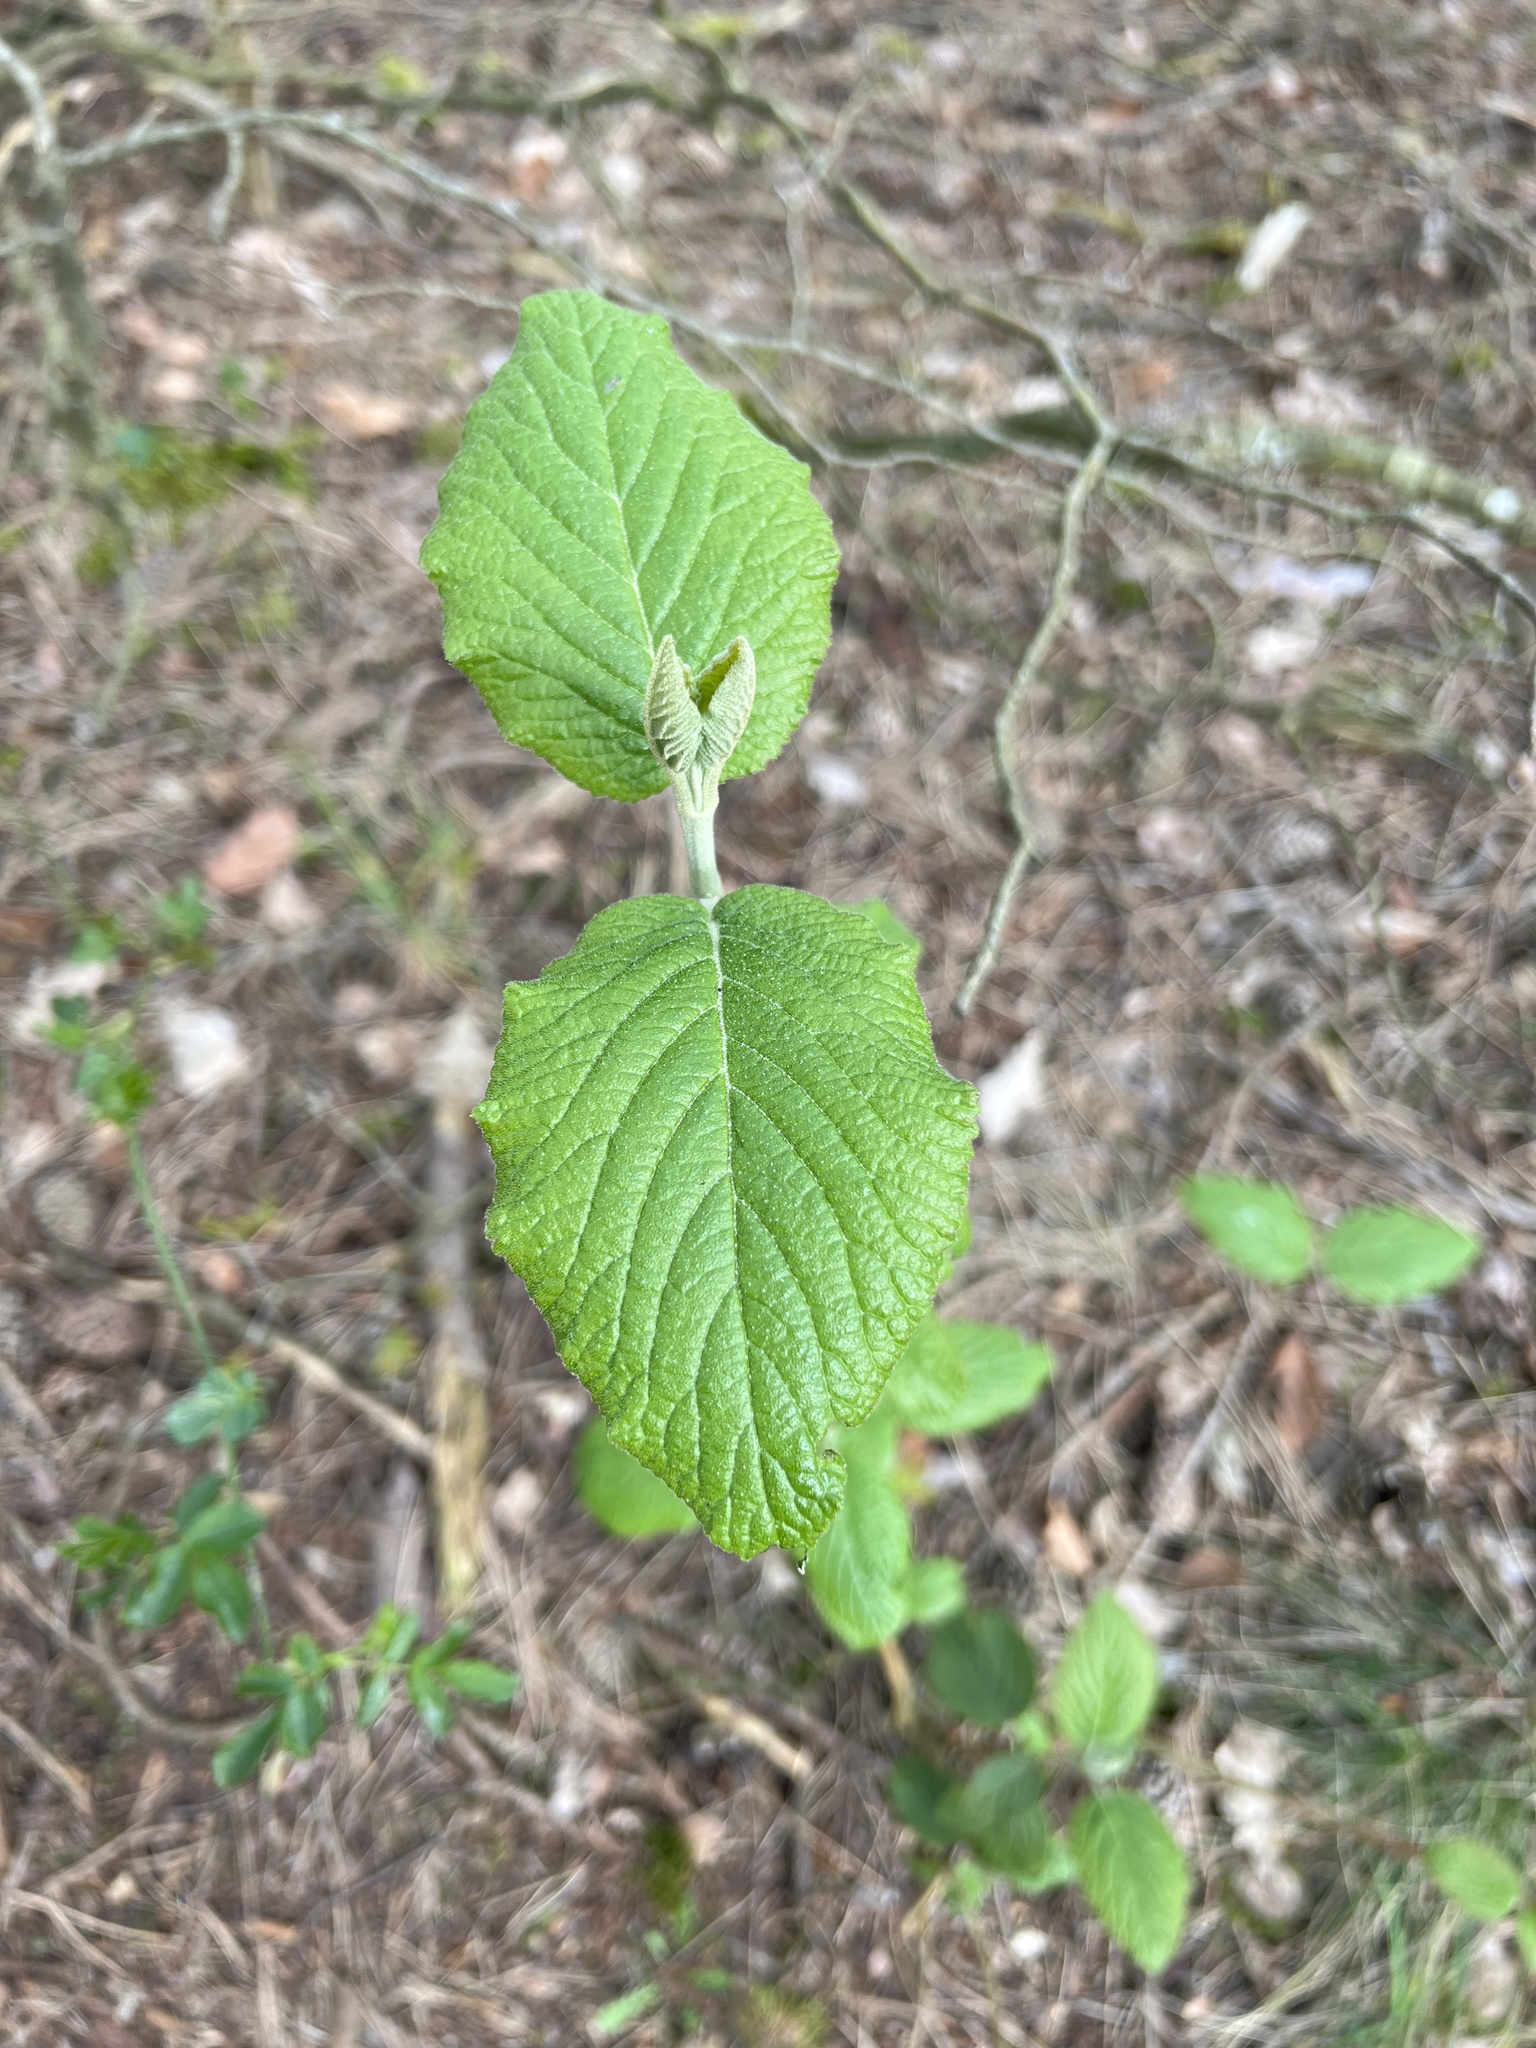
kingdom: Plantae
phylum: Tracheophyta
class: Magnoliopsida
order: Dipsacales
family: Viburnaceae
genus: Viburnum
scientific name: Viburnum lantana
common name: Wayfaring tree
